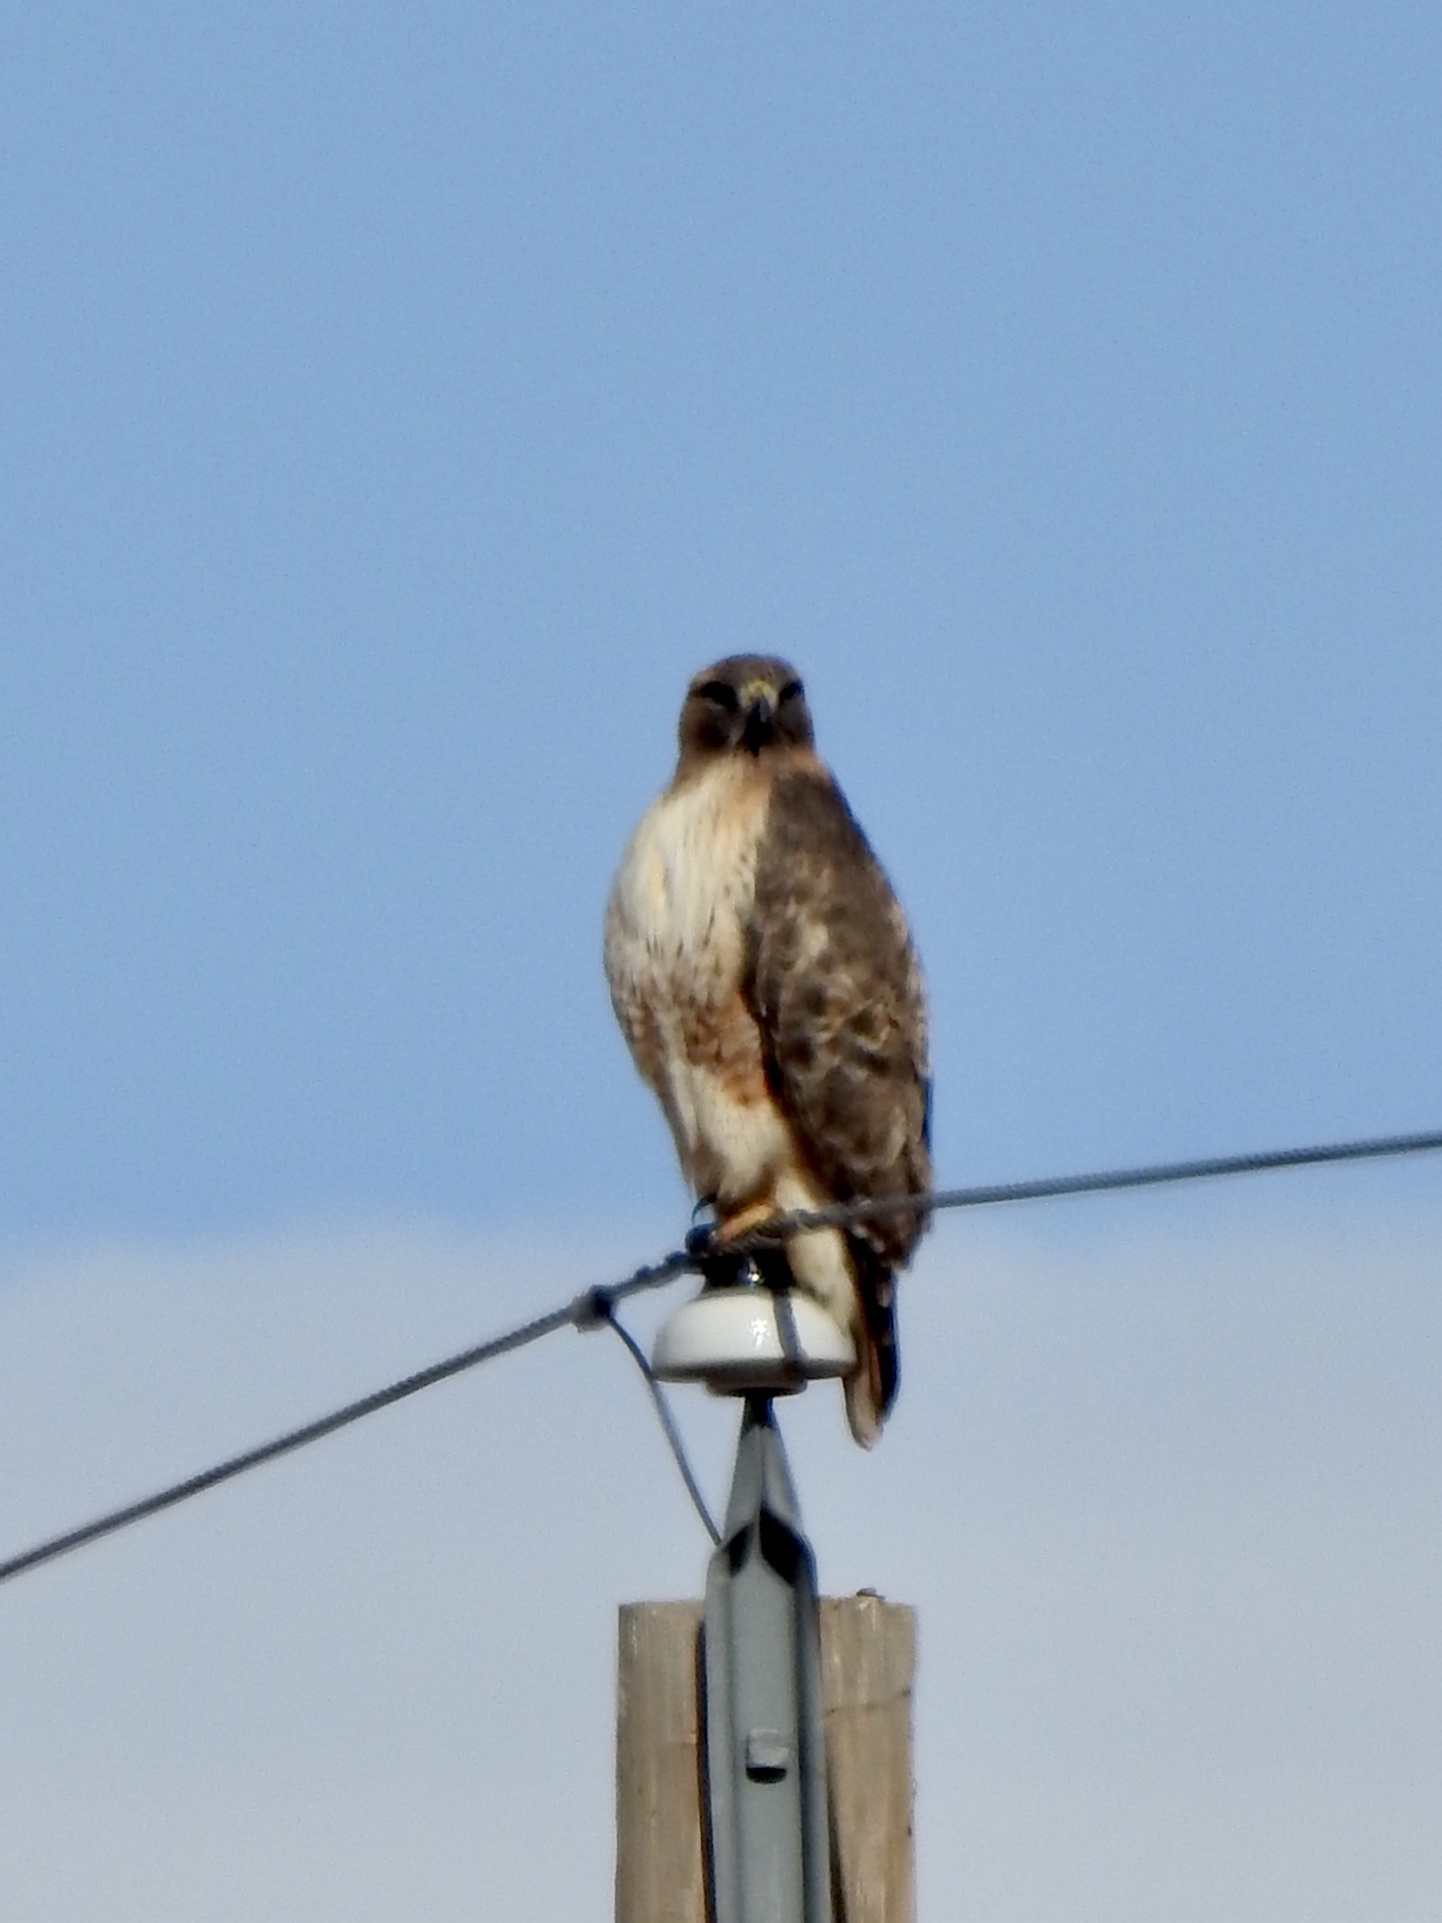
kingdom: Animalia
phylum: Chordata
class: Aves
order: Accipitriformes
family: Accipitridae
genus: Buteo
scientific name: Buteo jamaicensis
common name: Red-tailed hawk
